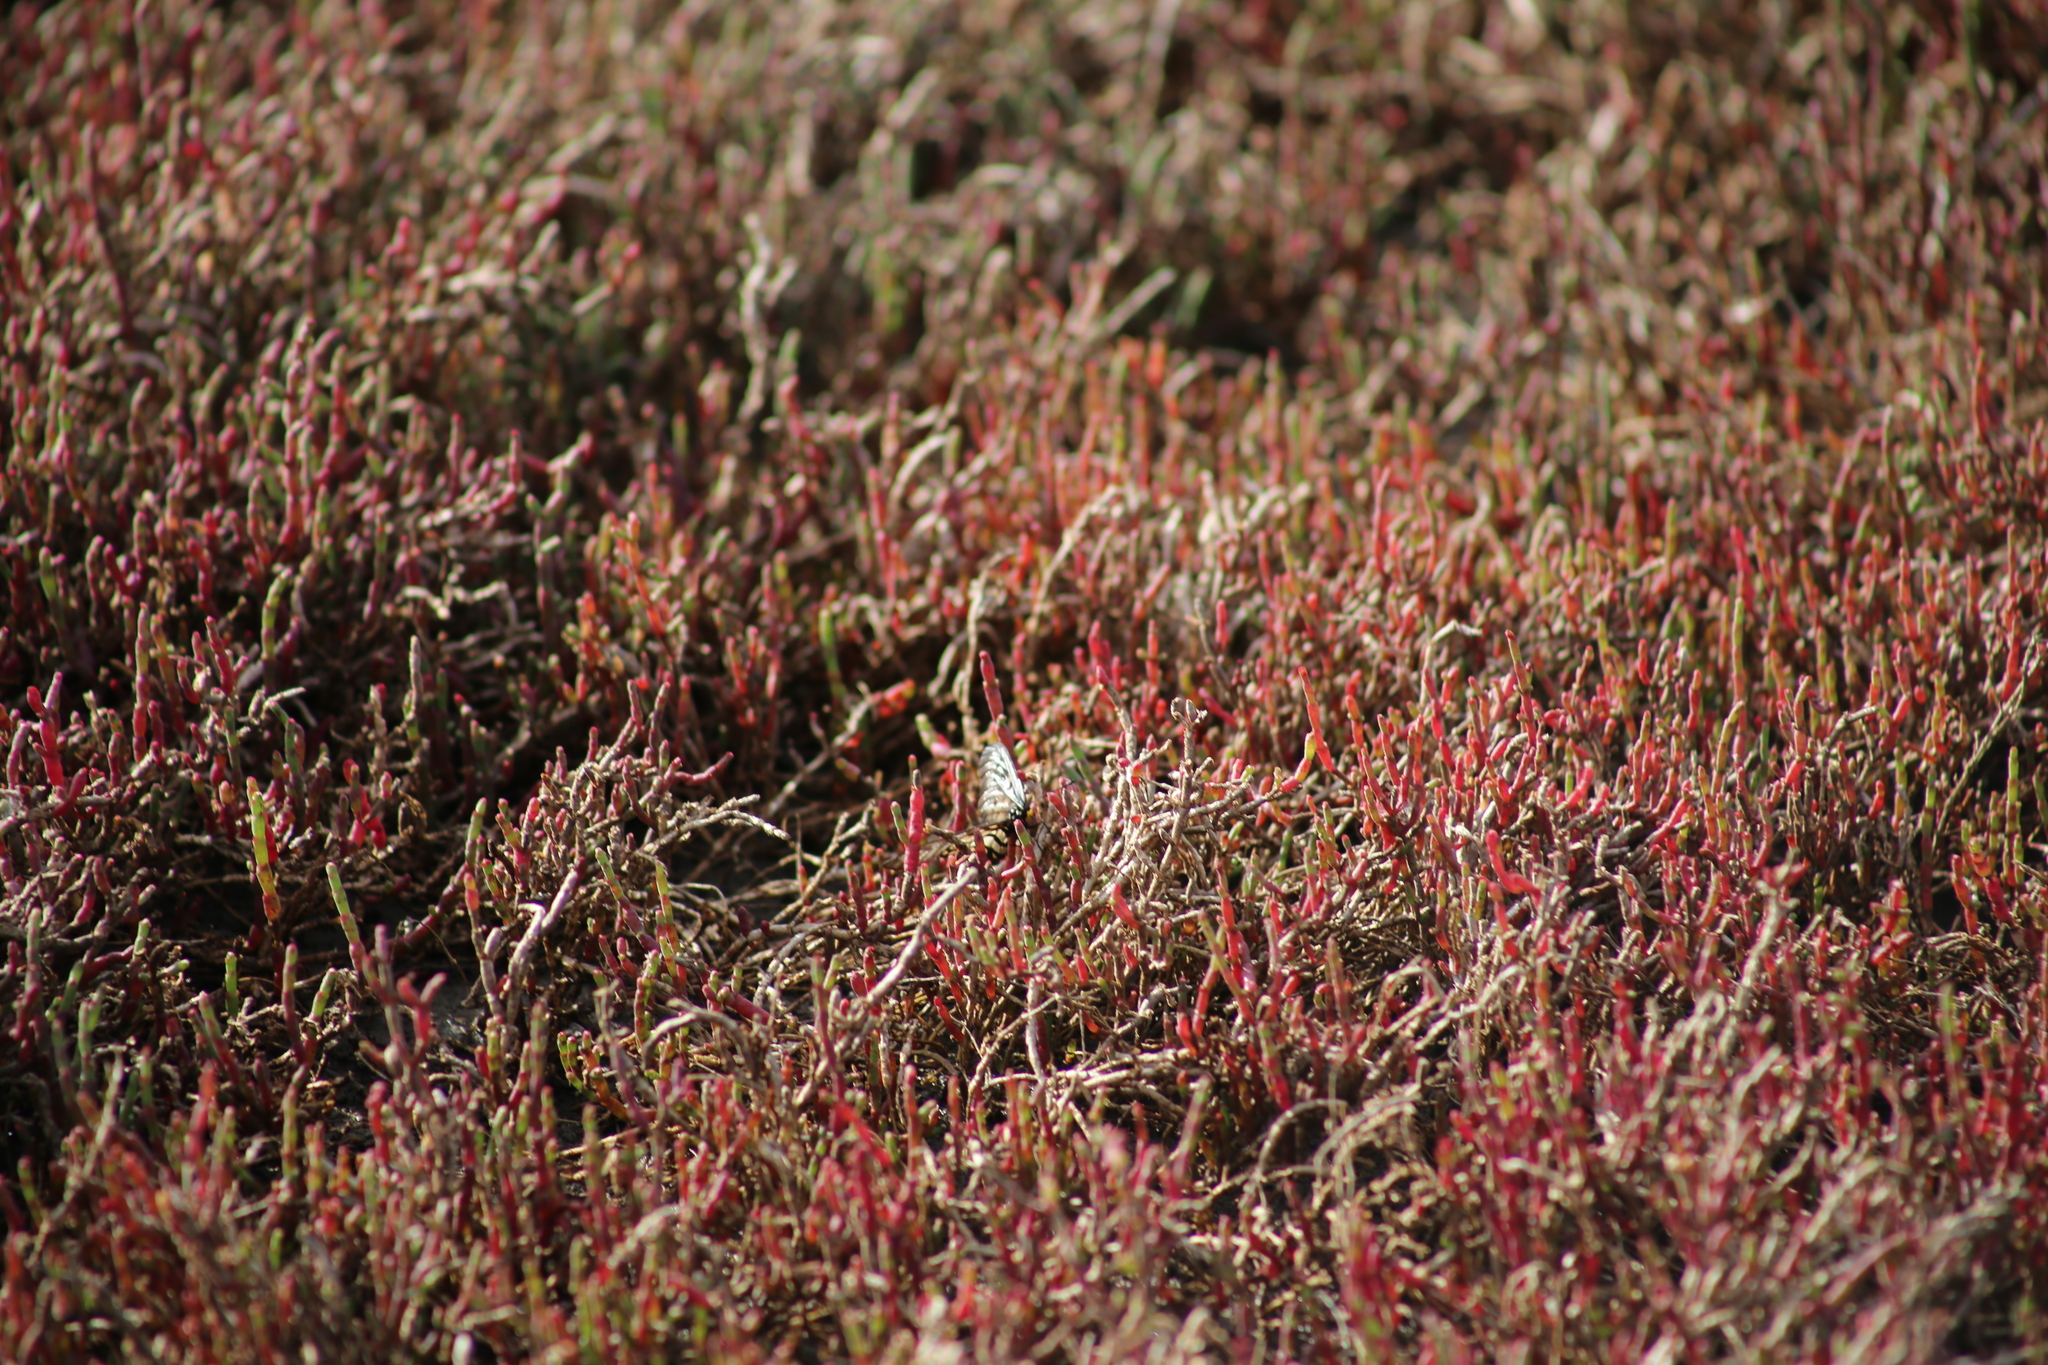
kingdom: Animalia
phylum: Arthropoda
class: Insecta
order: Lepidoptera
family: Nymphalidae
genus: Acraea
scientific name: Acraea andromacha
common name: Glasswing
